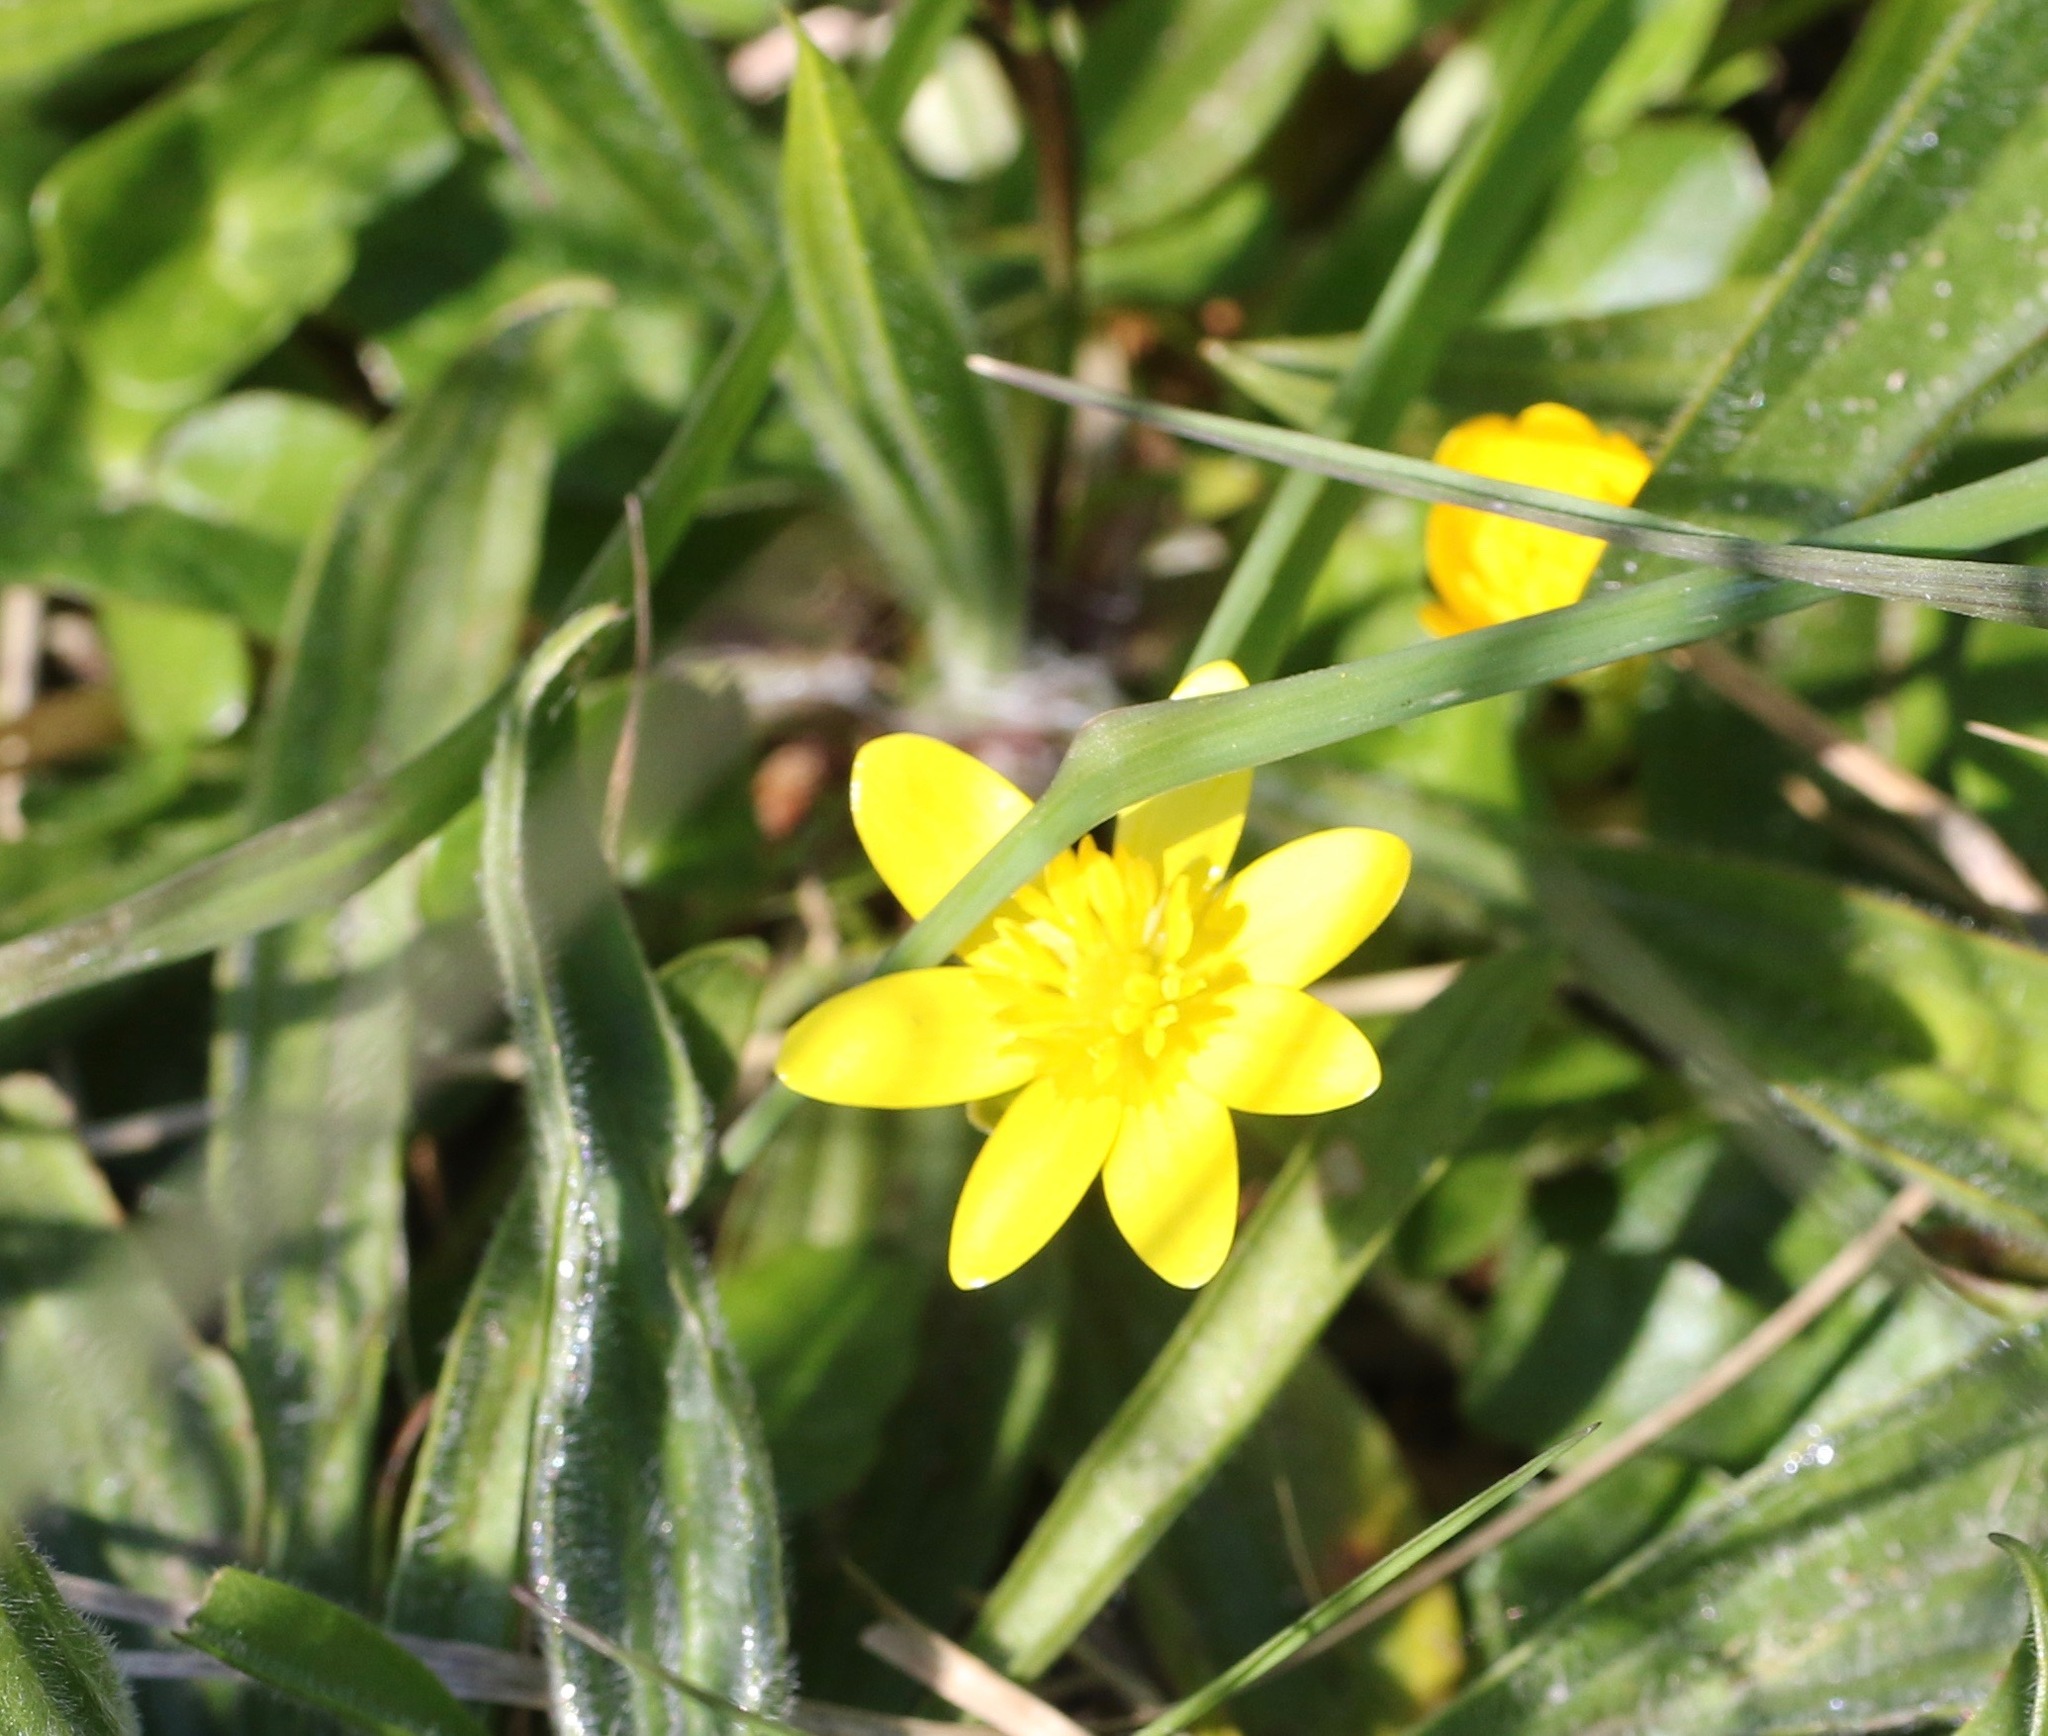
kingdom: Plantae
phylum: Tracheophyta
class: Magnoliopsida
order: Ranunculales
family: Ranunculaceae
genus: Ficaria
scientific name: Ficaria verna
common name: Lesser celandine
